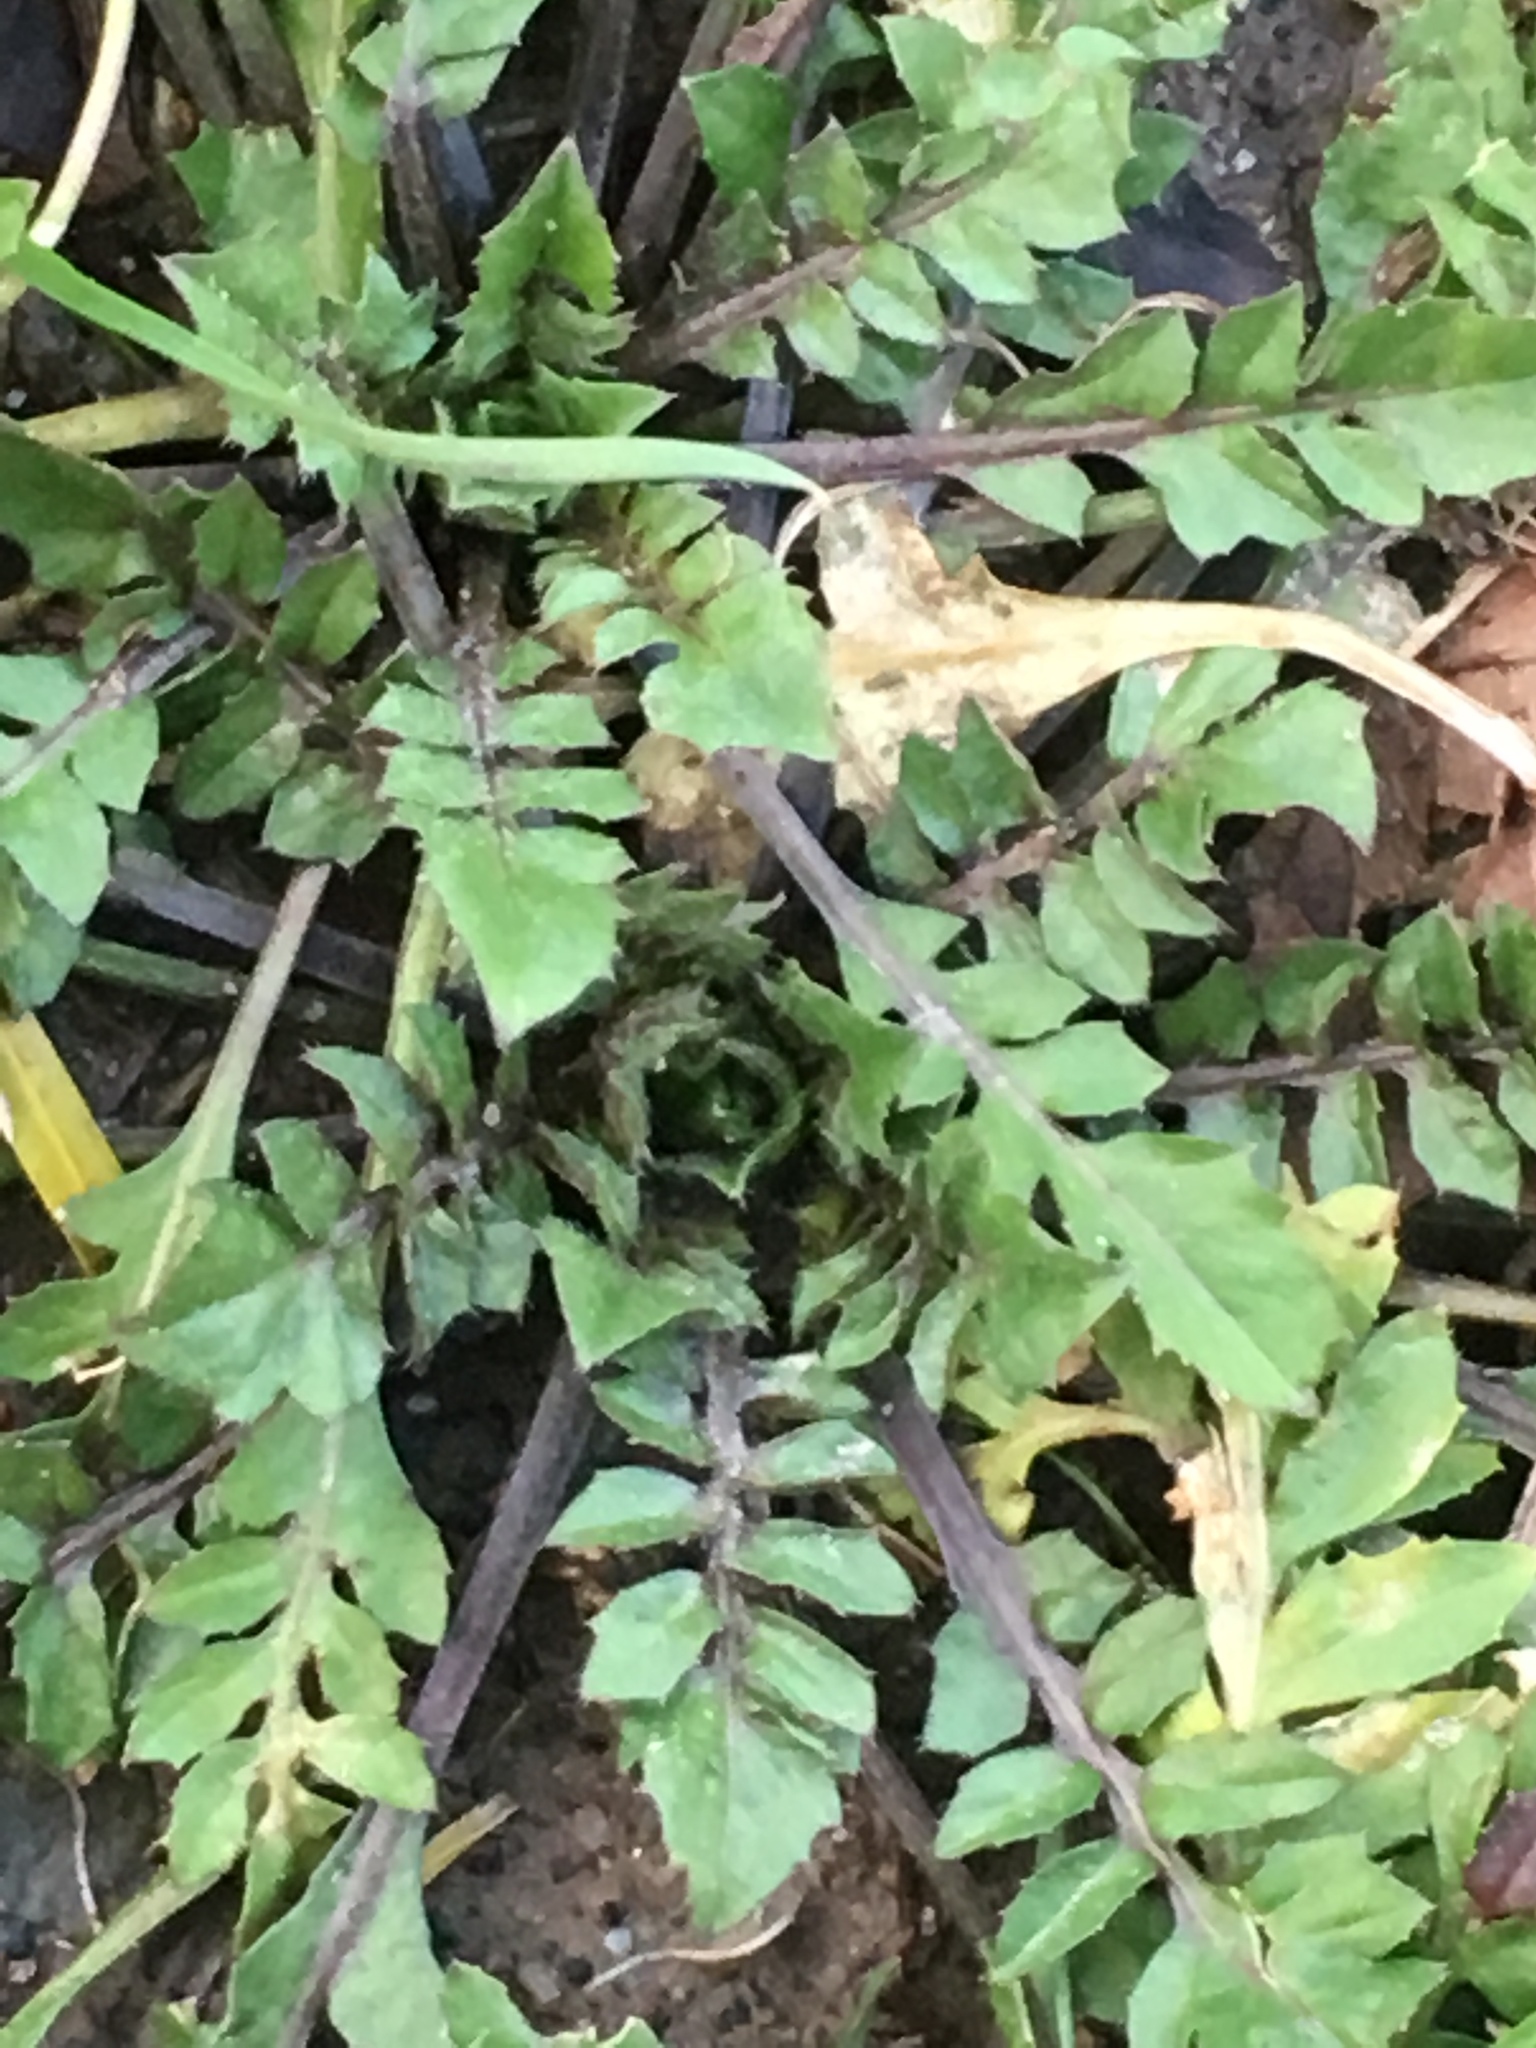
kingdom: Plantae
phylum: Tracheophyta
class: Magnoliopsida
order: Brassicales
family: Brassicaceae
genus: Capsella
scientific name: Capsella bursa-pastoris
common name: Shepherd's purse
